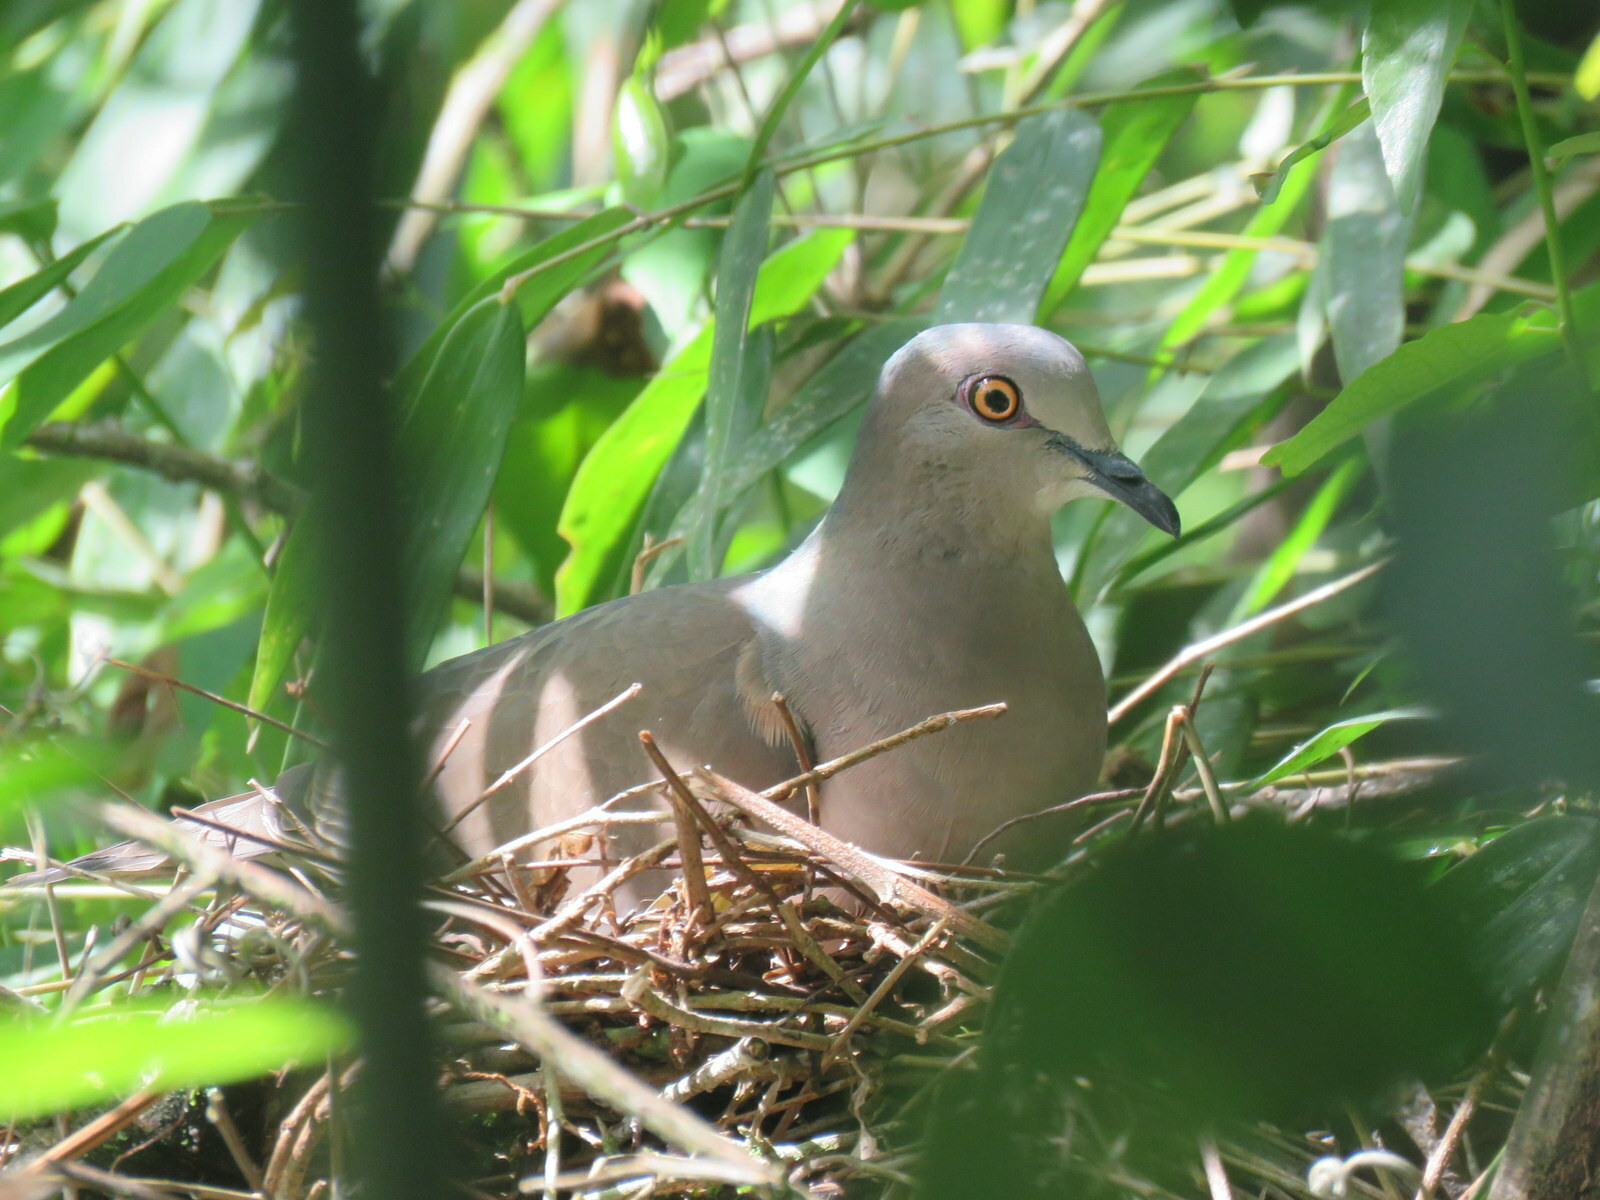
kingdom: Animalia
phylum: Chordata
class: Aves
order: Columbiformes
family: Columbidae
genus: Leptotila
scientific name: Leptotila verreauxi
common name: White-tipped dove
